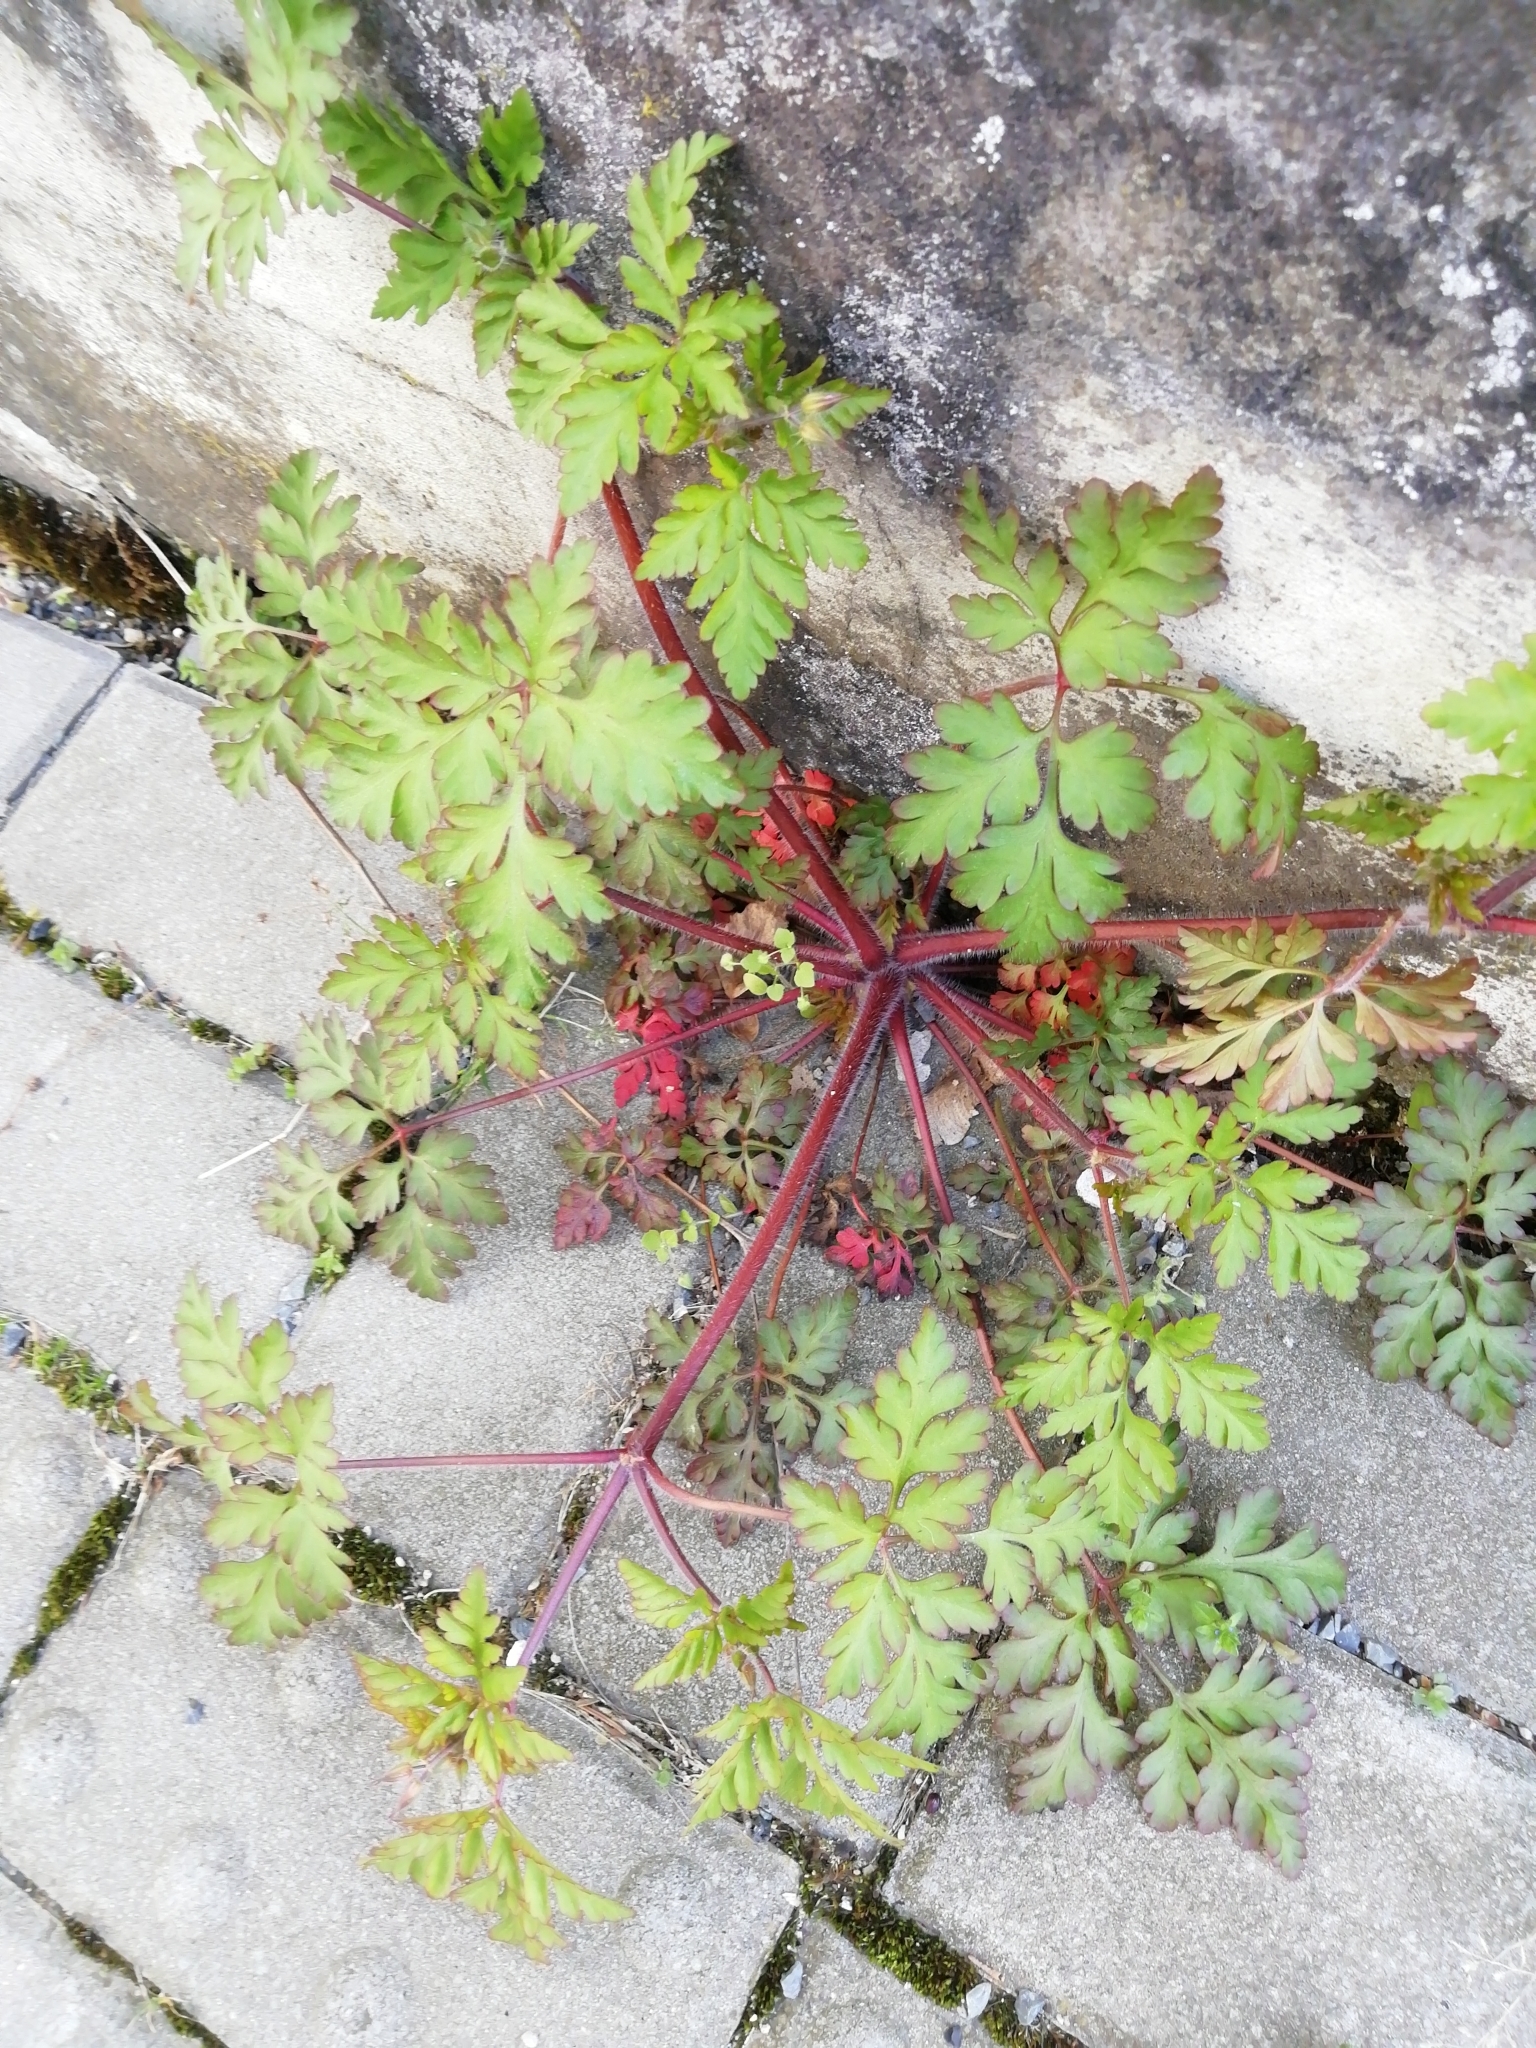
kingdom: Plantae
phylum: Tracheophyta
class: Magnoliopsida
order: Geraniales
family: Geraniaceae
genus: Geranium
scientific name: Geranium robertianum
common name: Herb-robert
